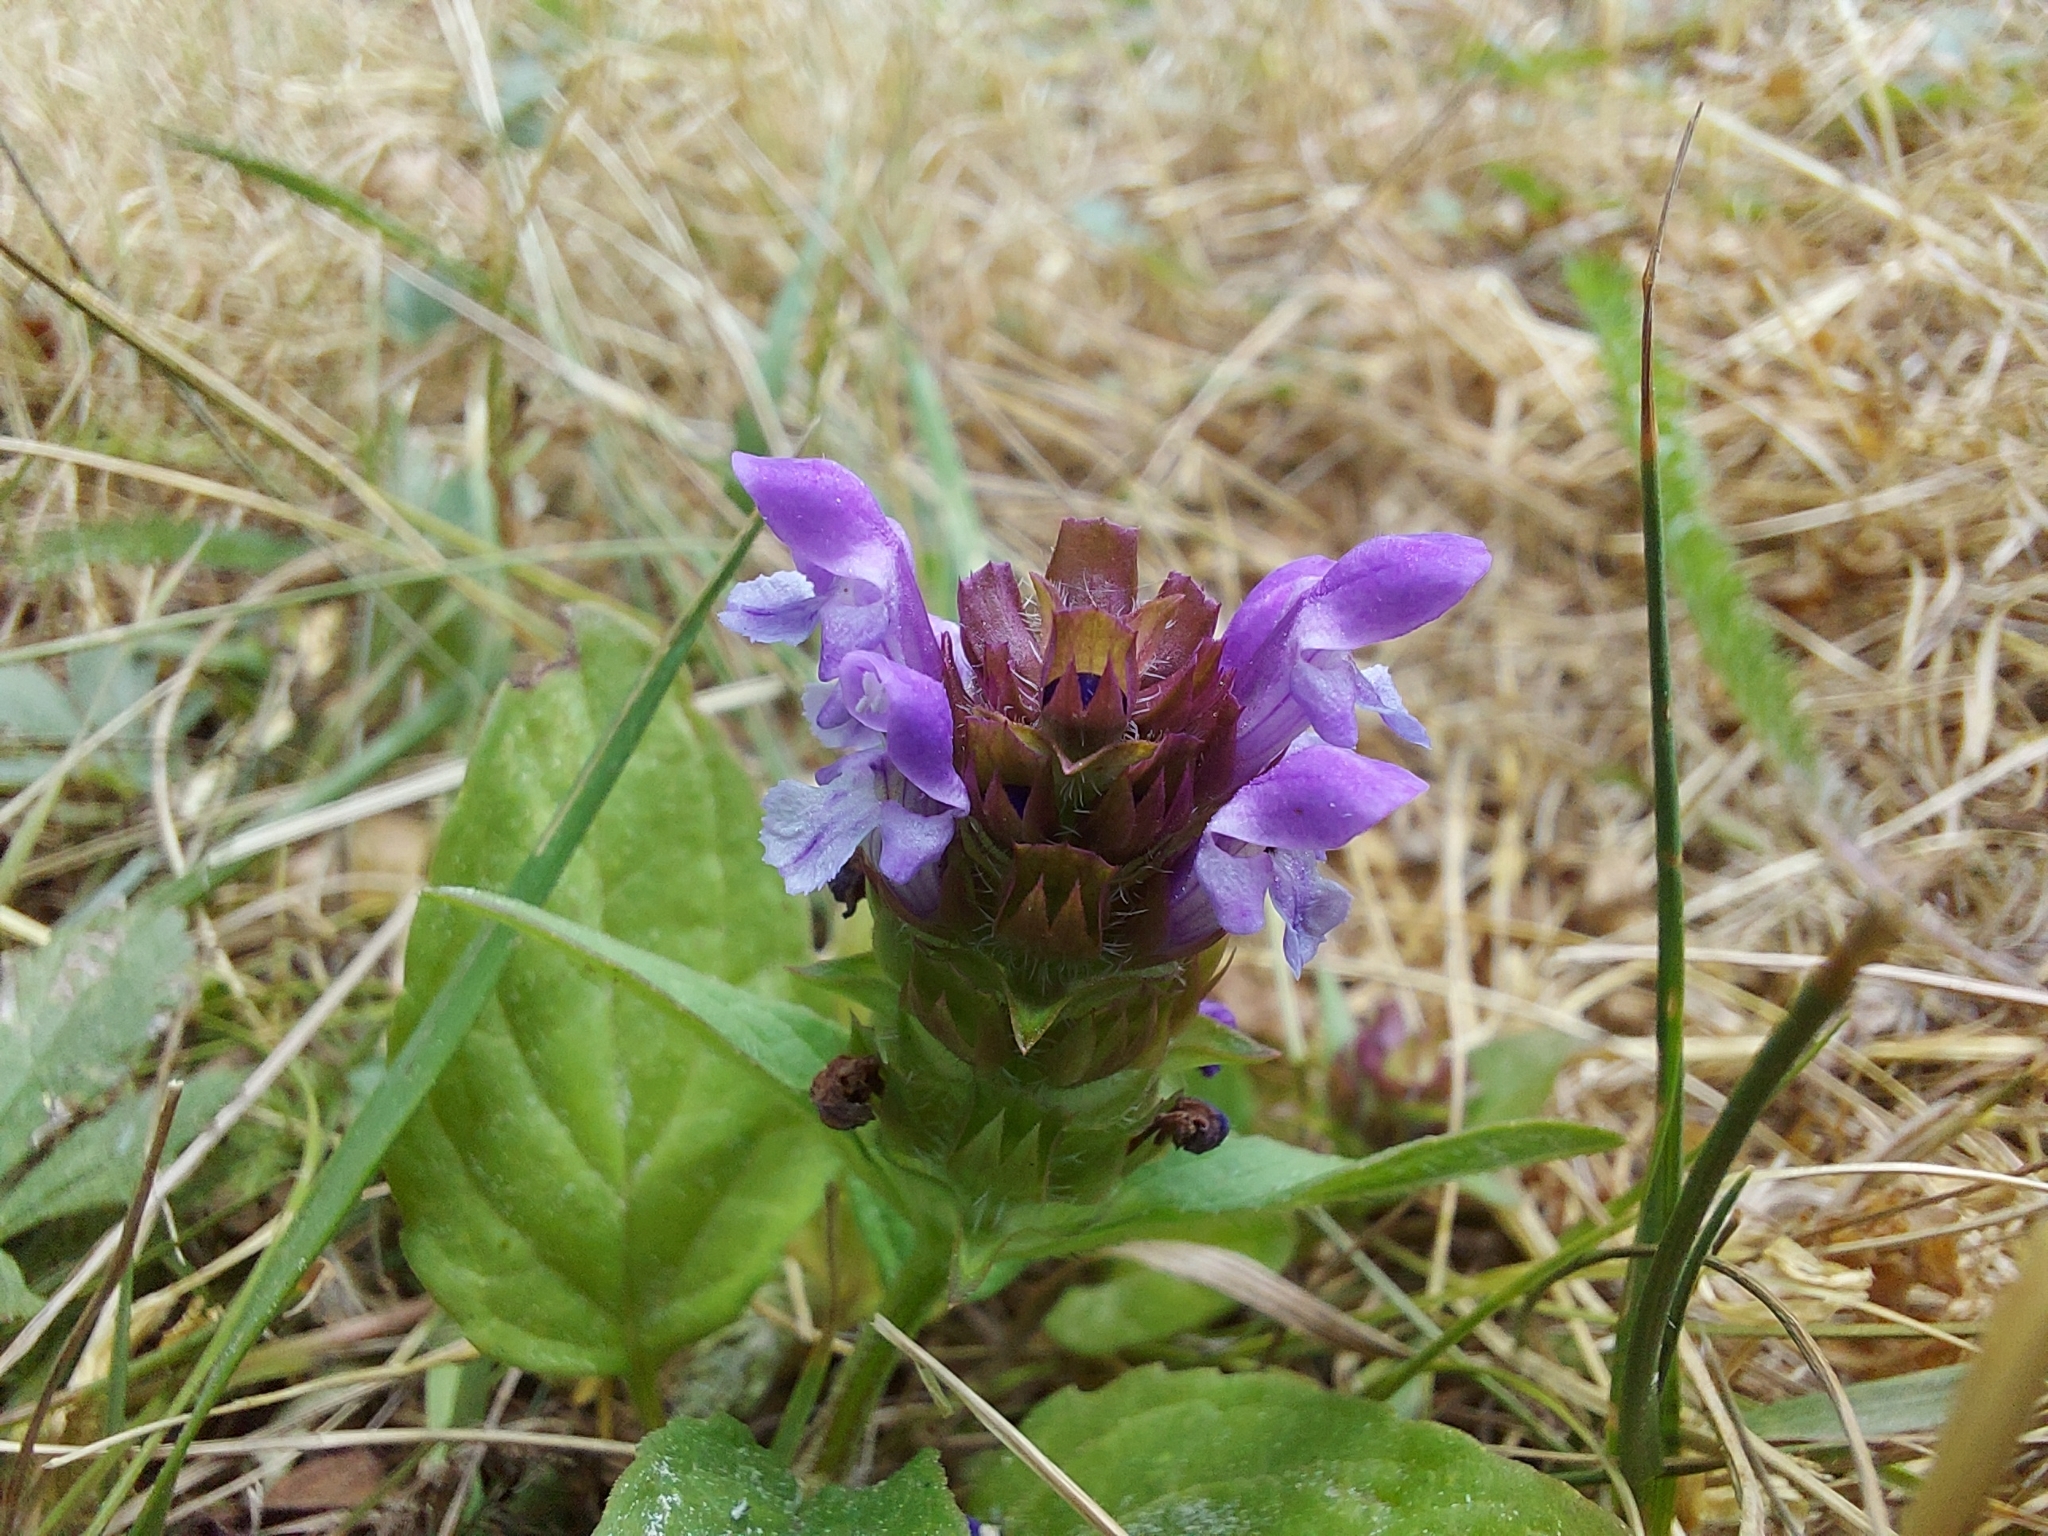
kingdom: Plantae
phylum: Tracheophyta
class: Magnoliopsida
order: Lamiales
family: Lamiaceae
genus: Prunella
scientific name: Prunella vulgaris
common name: Heal-all
